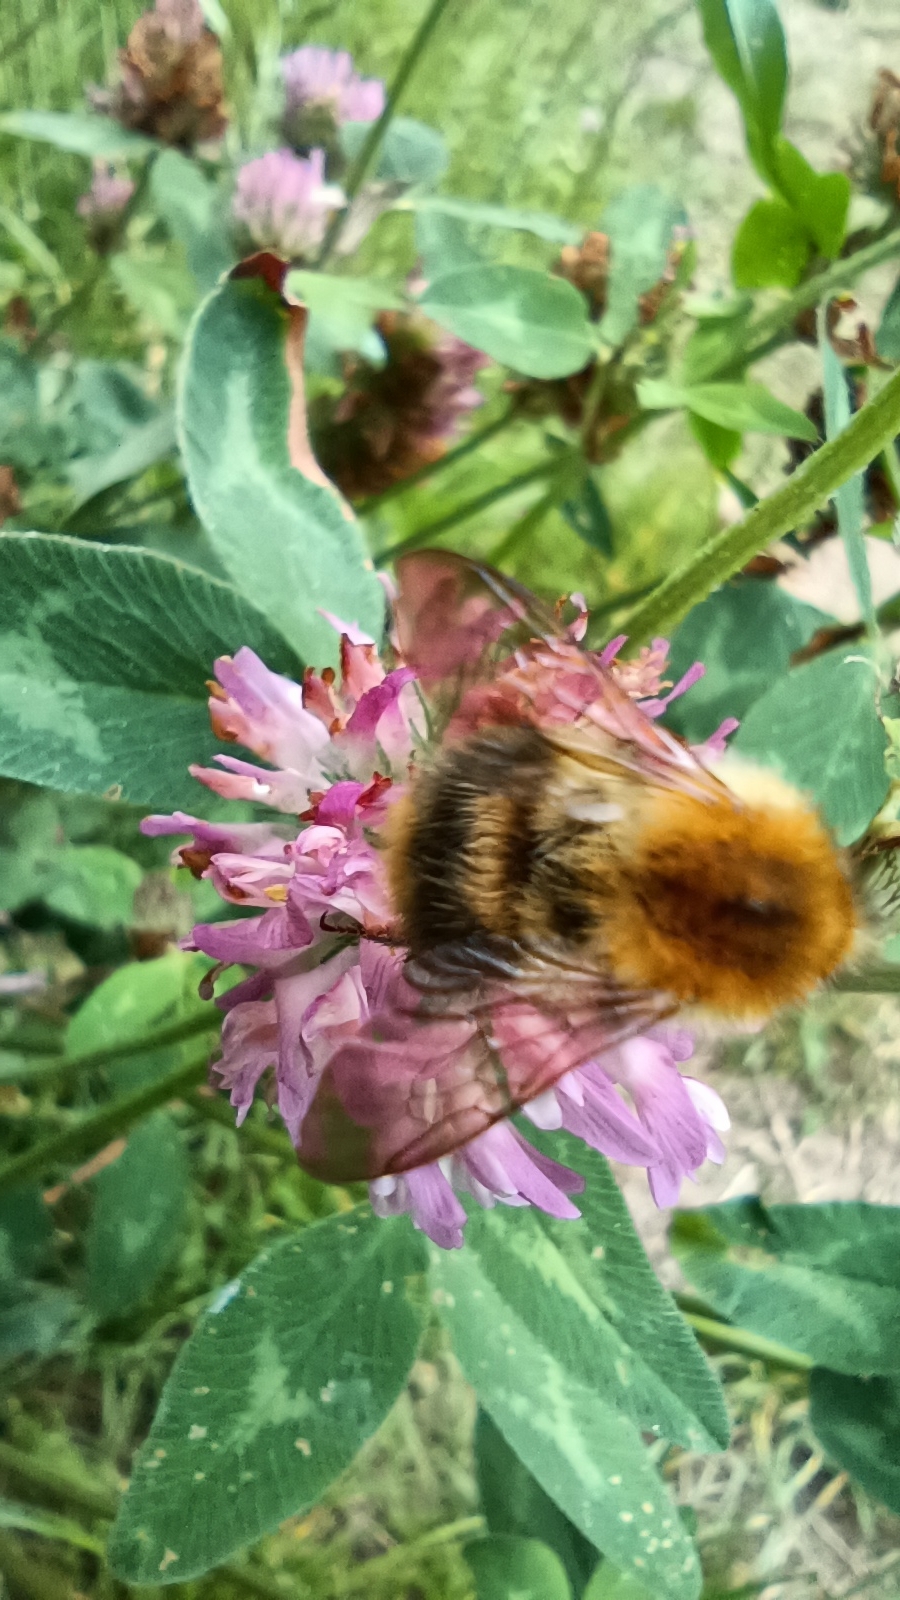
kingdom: Animalia
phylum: Arthropoda
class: Insecta
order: Hymenoptera
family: Apidae
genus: Bombus
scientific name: Bombus pascuorum
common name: Common carder bee
